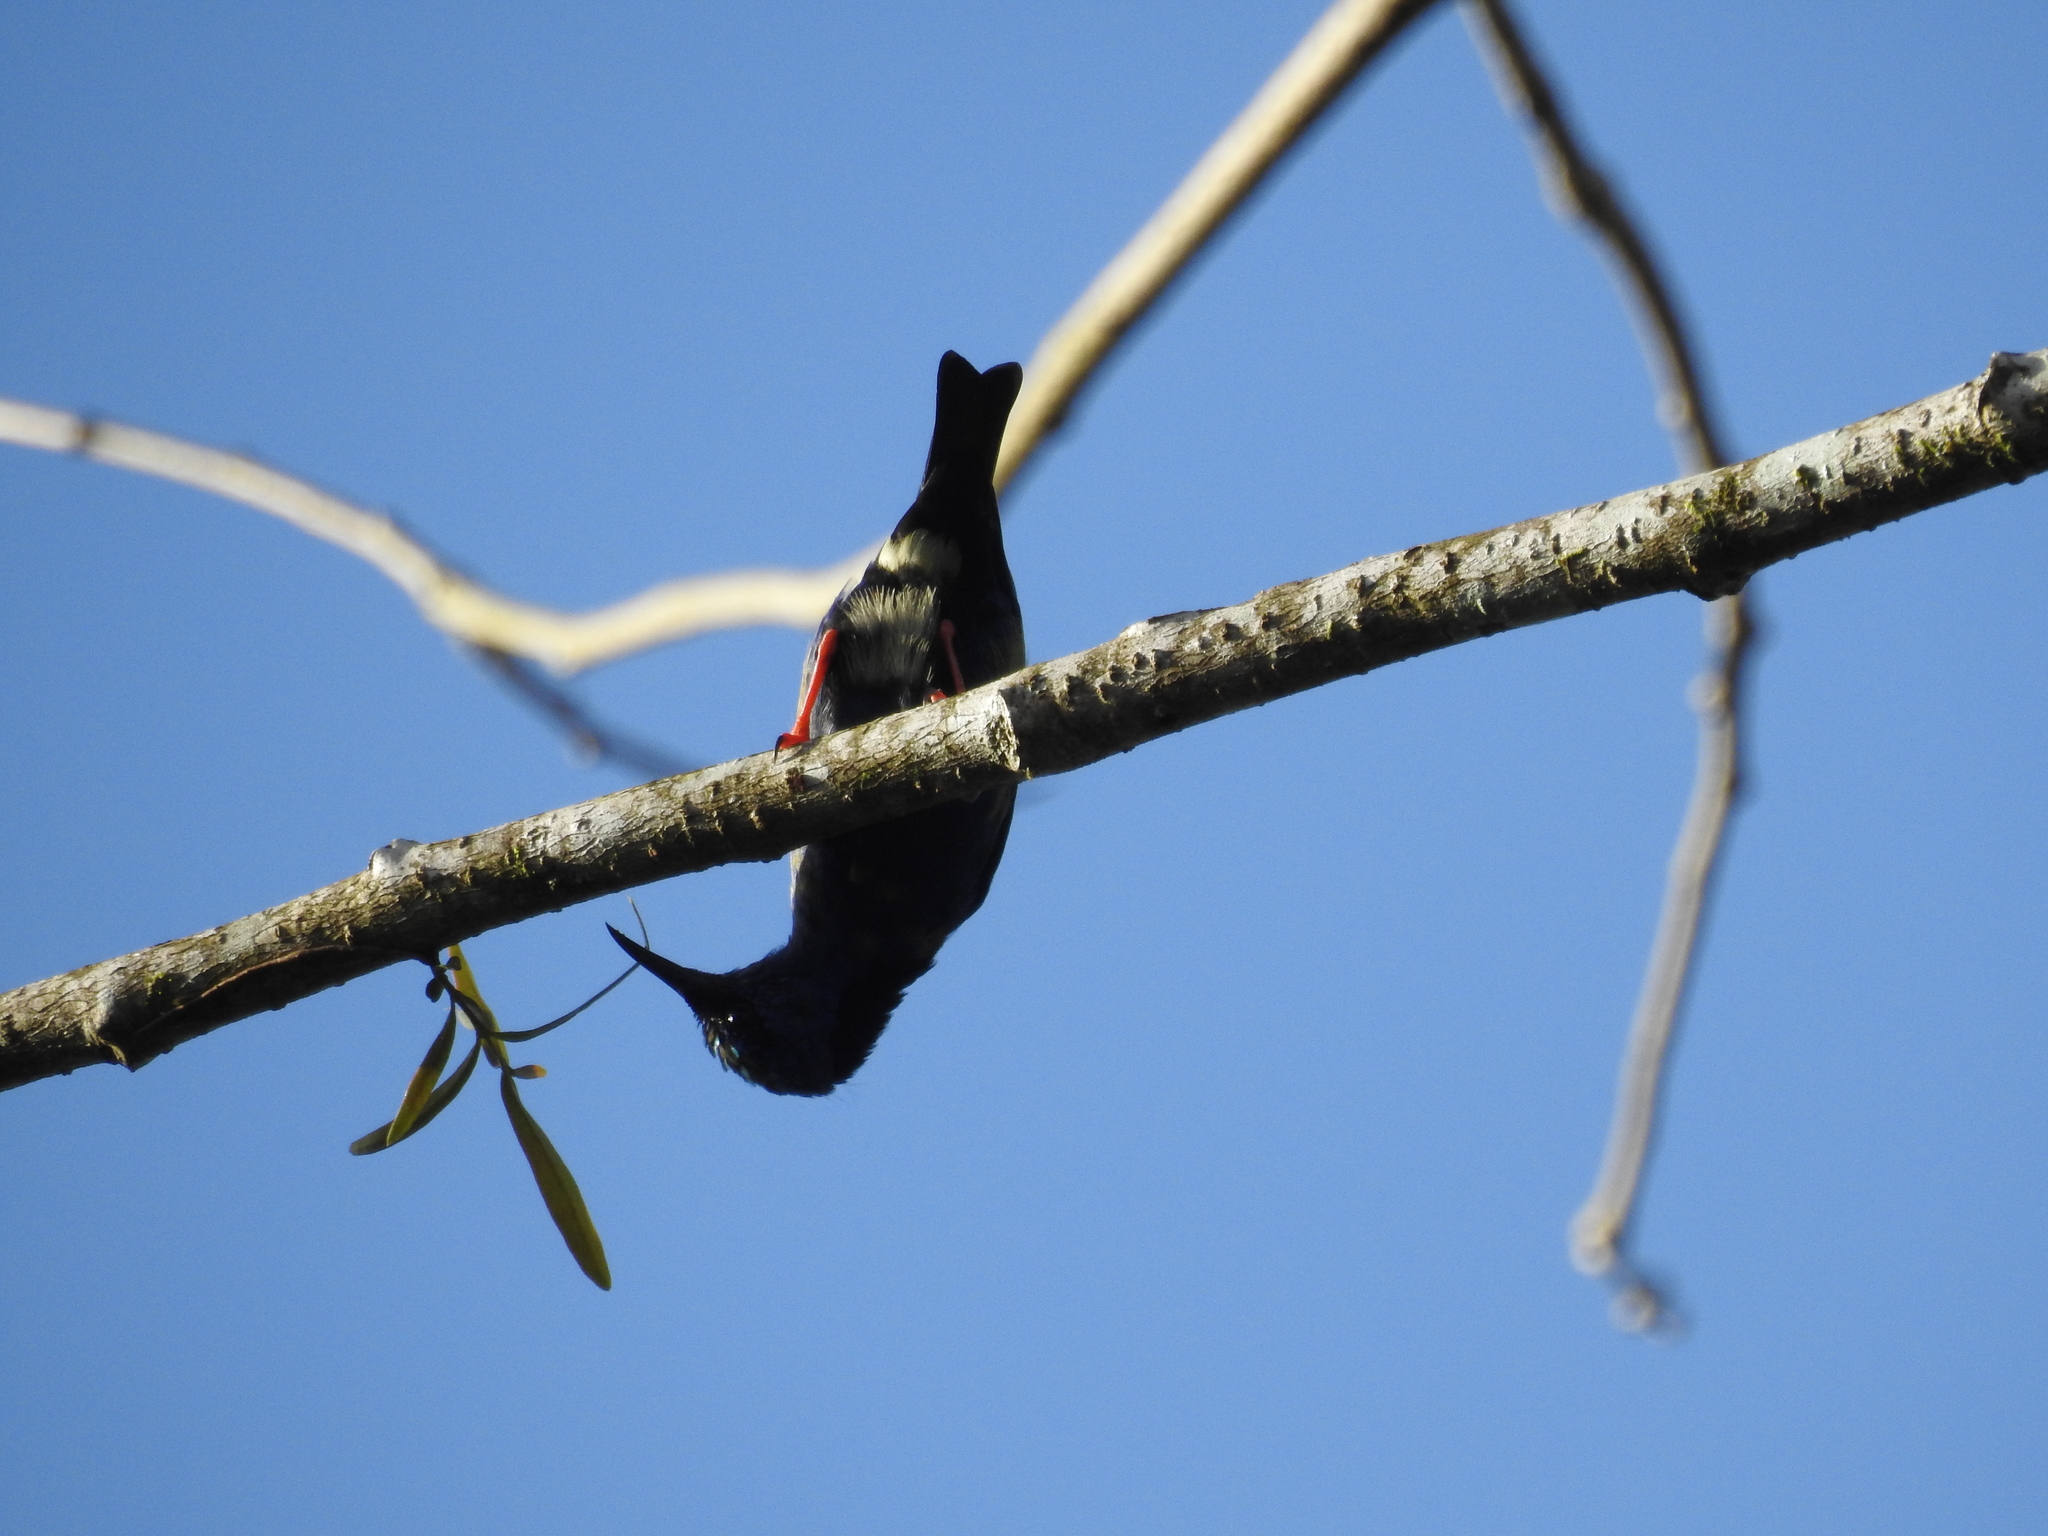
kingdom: Animalia
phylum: Chordata
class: Aves
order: Passeriformes
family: Thraupidae
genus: Cyanerpes
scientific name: Cyanerpes cyaneus
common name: Red-legged honeycreeper
